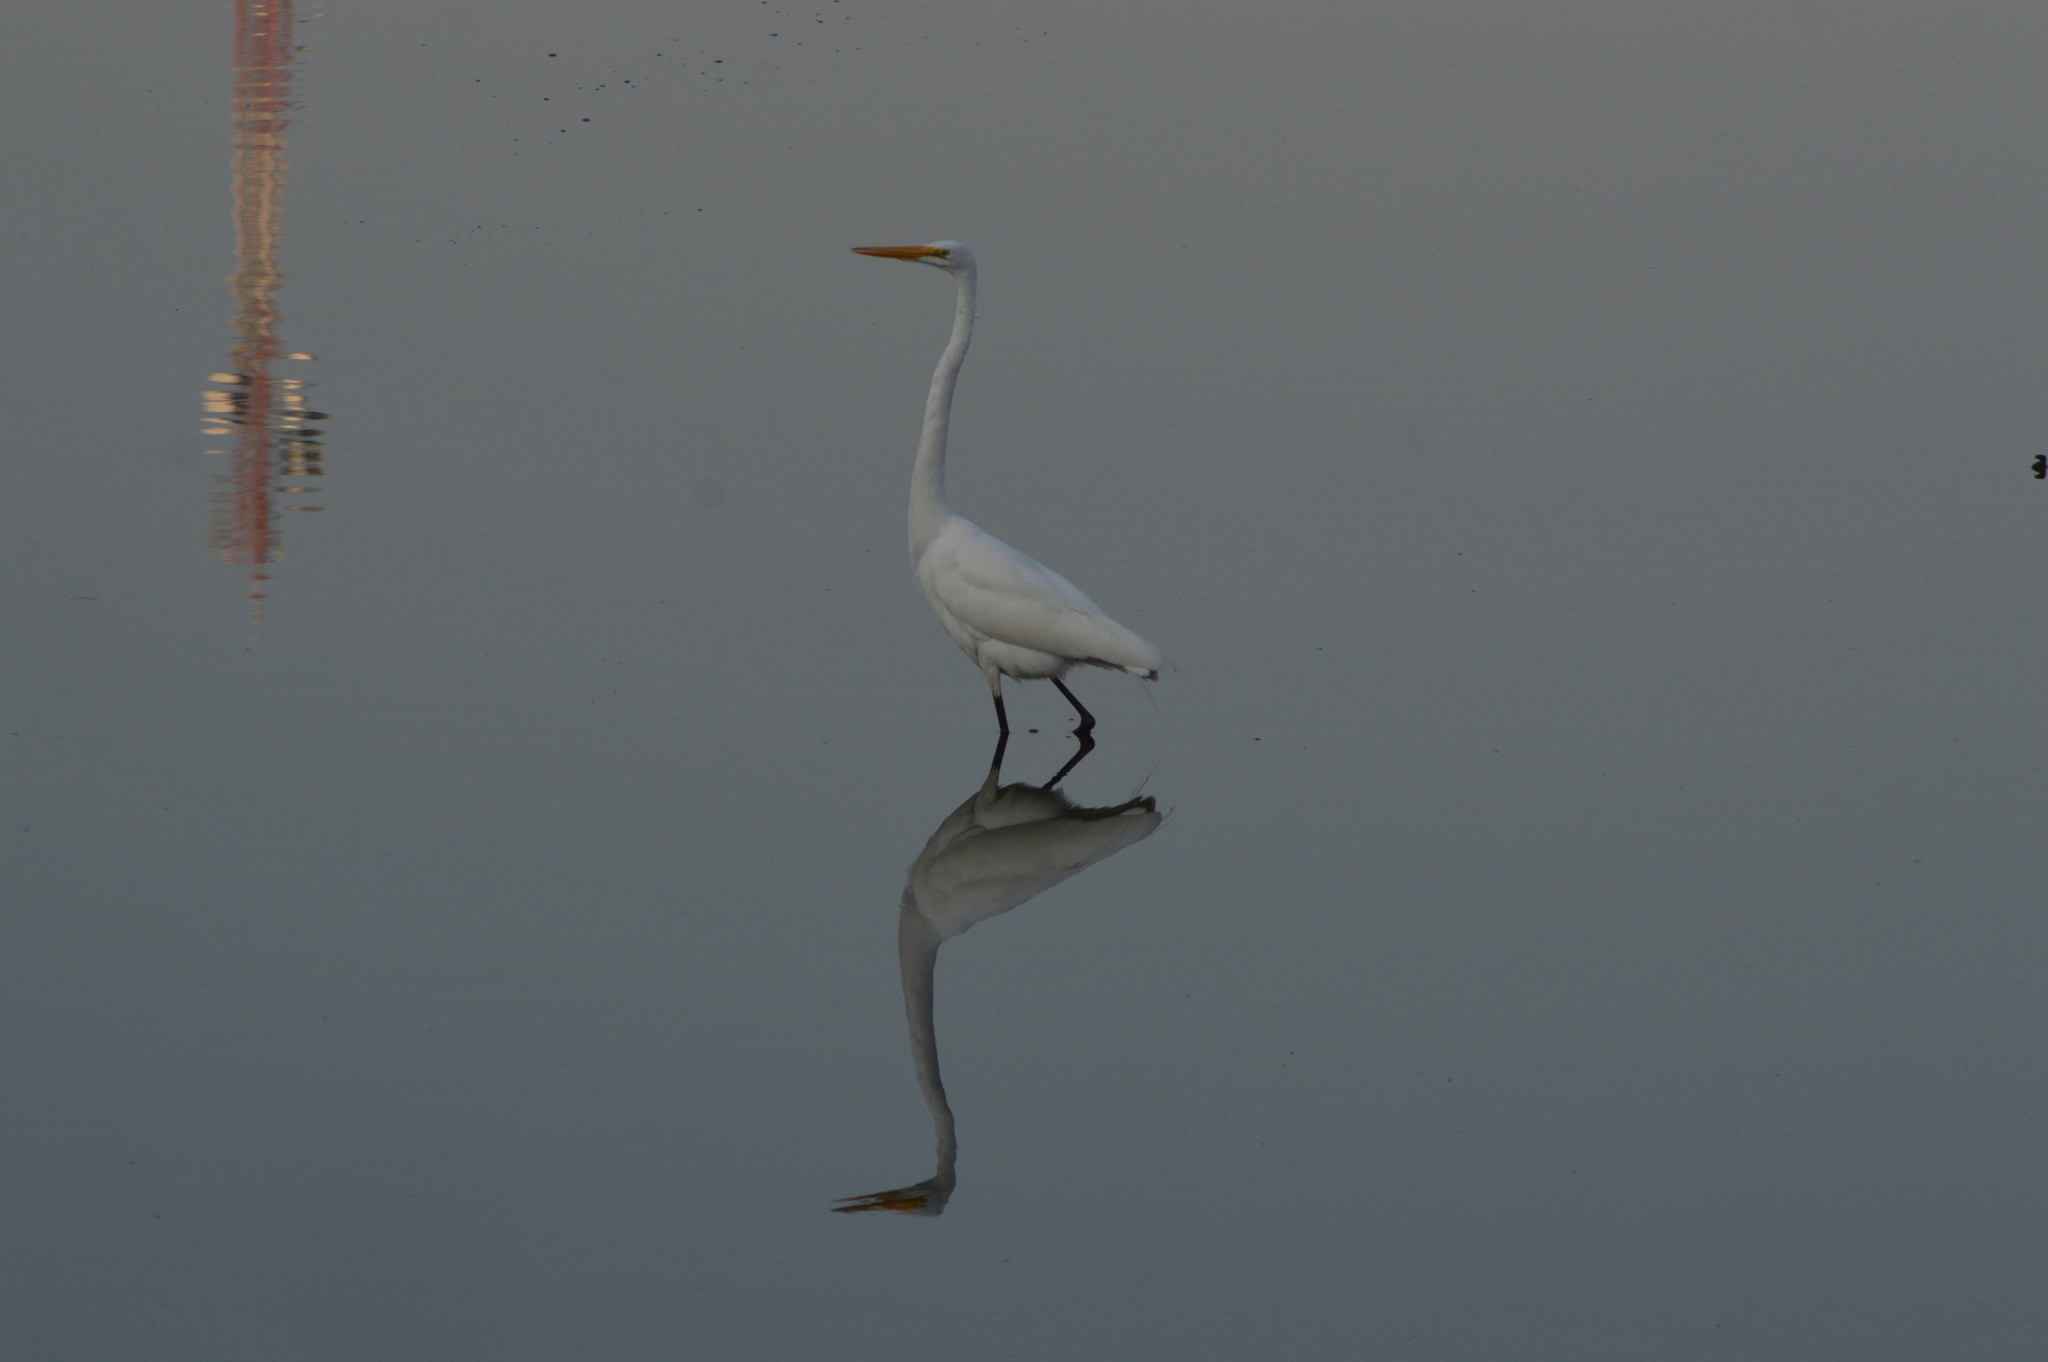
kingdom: Animalia
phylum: Chordata
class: Aves
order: Pelecaniformes
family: Ardeidae
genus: Ardea
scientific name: Ardea alba
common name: Great egret
